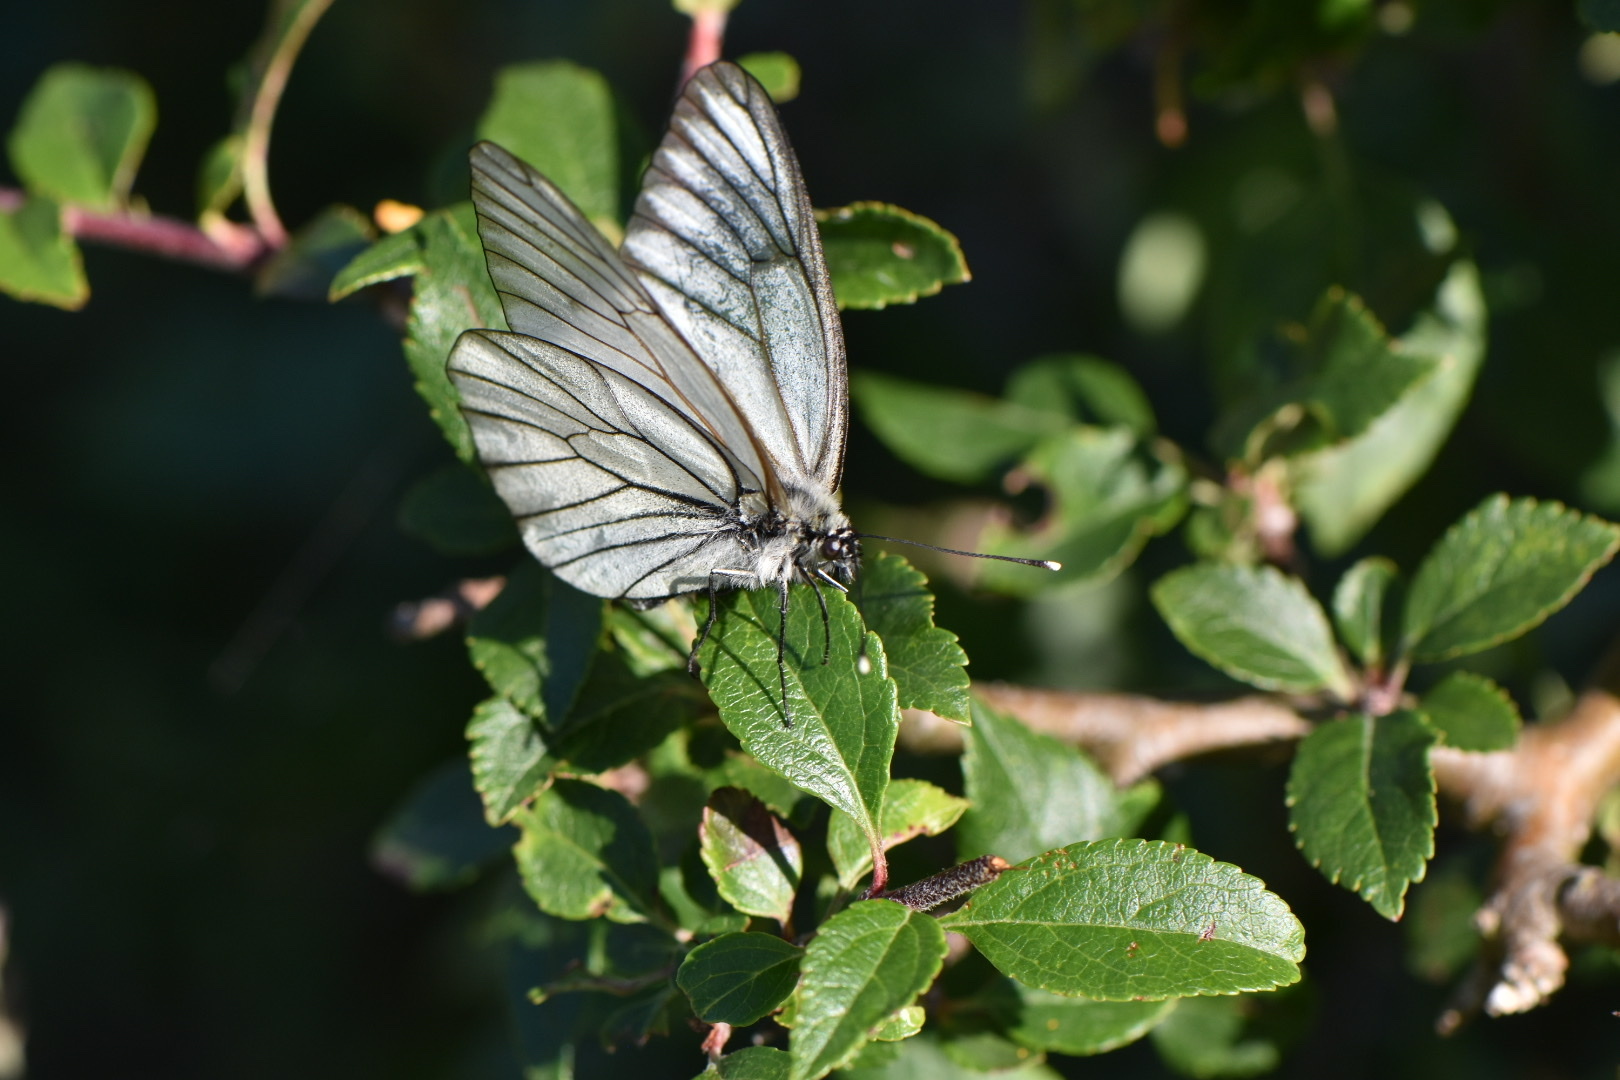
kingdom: Animalia
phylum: Arthropoda
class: Insecta
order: Lepidoptera
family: Pieridae
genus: Aporia
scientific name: Aporia crataegi
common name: Black-veined white
